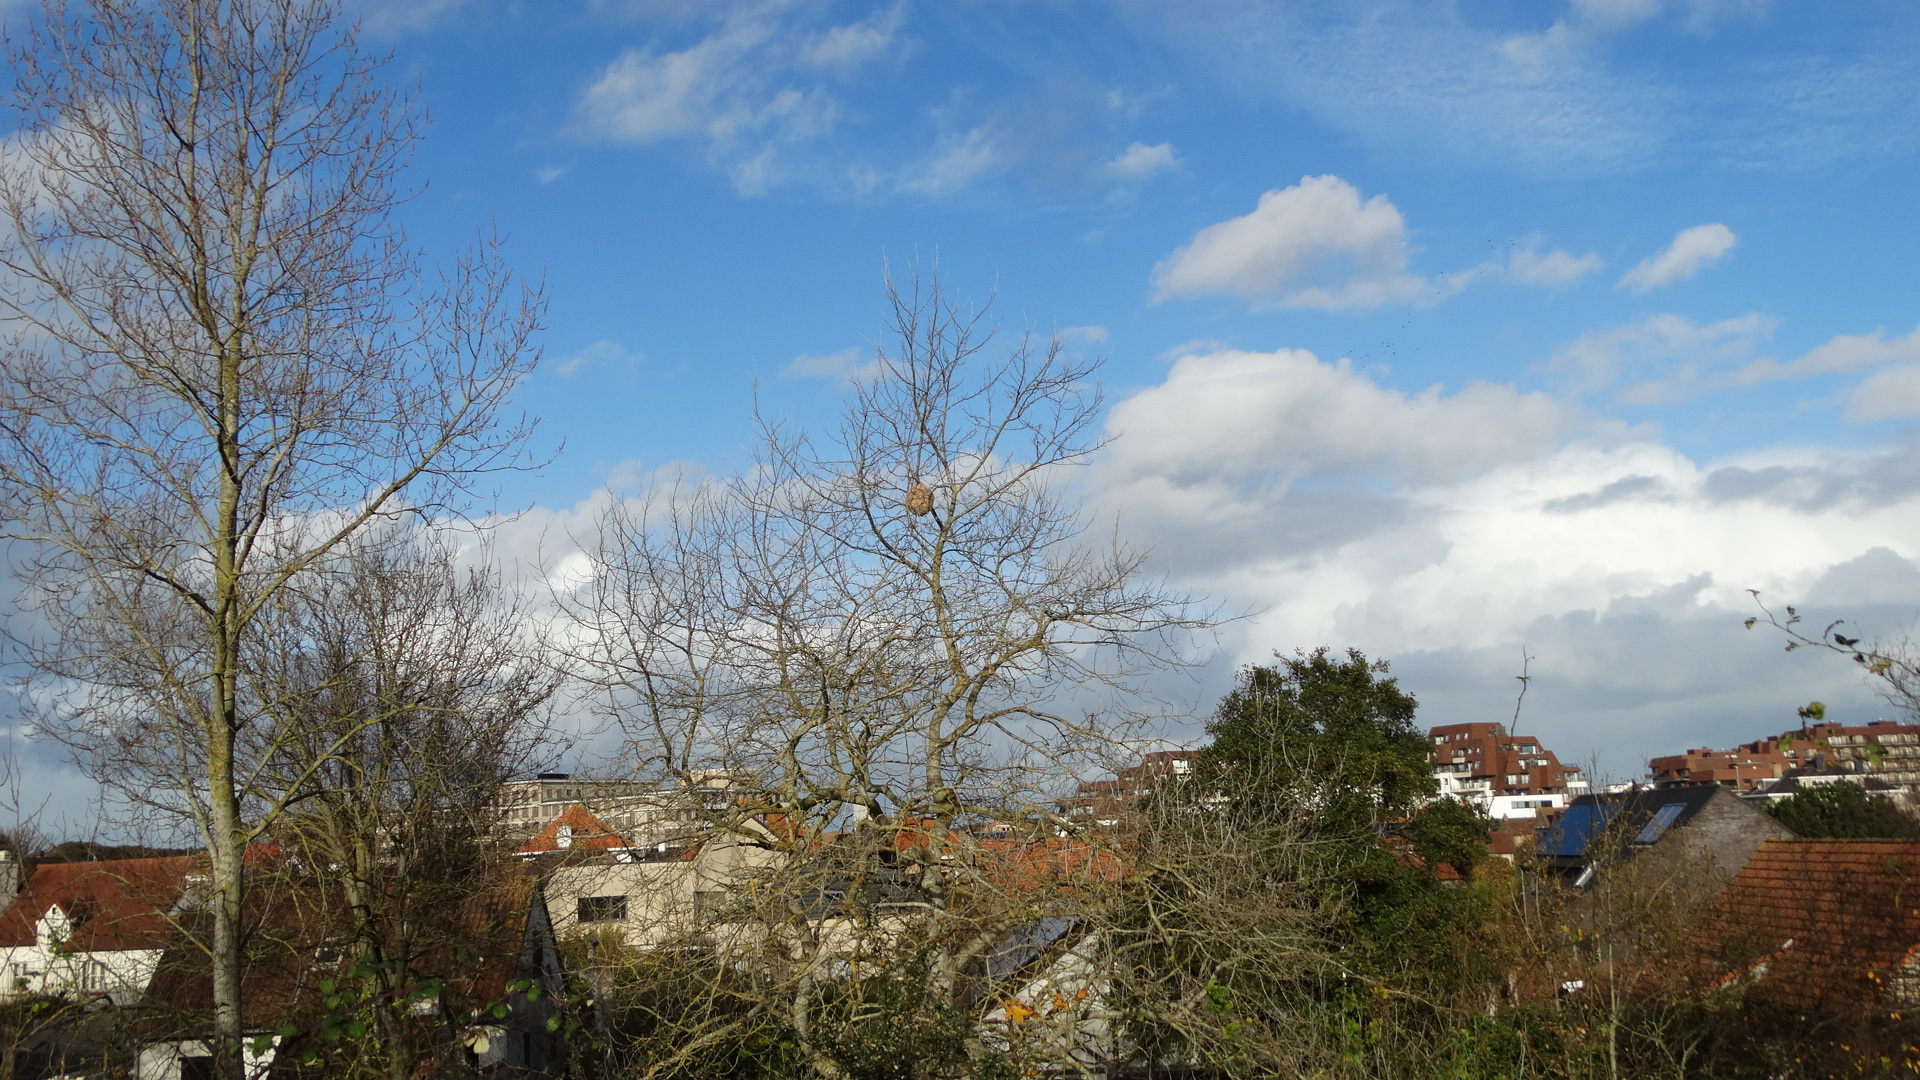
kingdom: Animalia
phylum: Arthropoda
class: Insecta
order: Hymenoptera
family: Vespidae
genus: Vespa
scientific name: Vespa velutina
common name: Asian hornet
